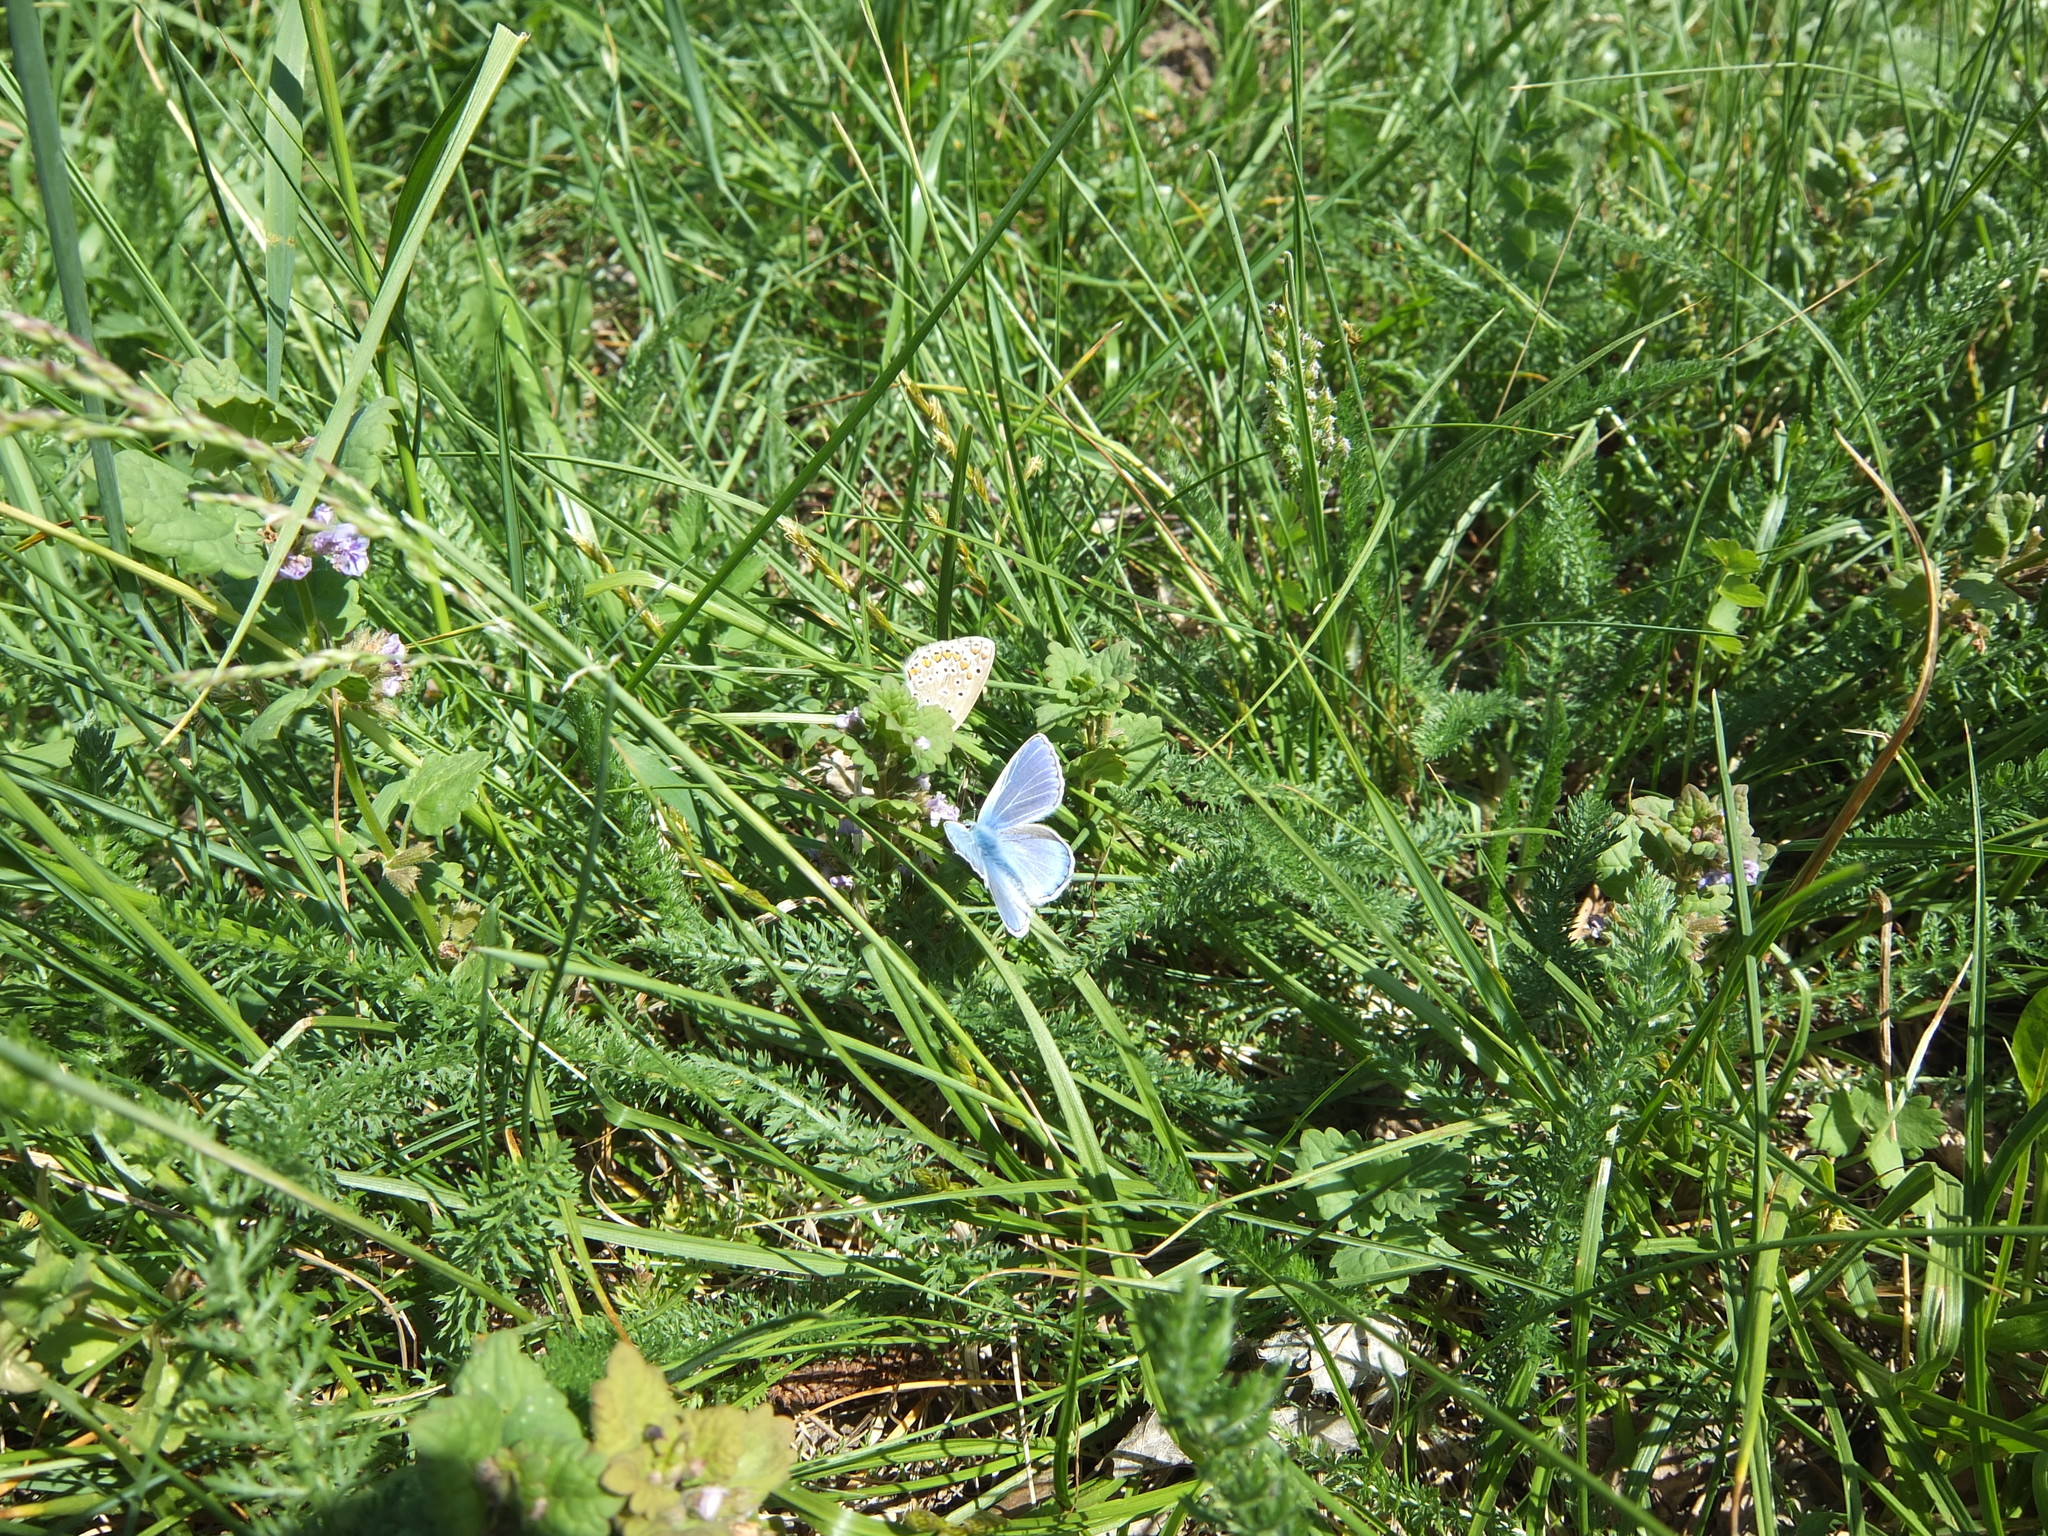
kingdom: Animalia
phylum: Arthropoda
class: Insecta
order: Lepidoptera
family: Lycaenidae
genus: Polyommatus
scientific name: Polyommatus icarus
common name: Common blue
